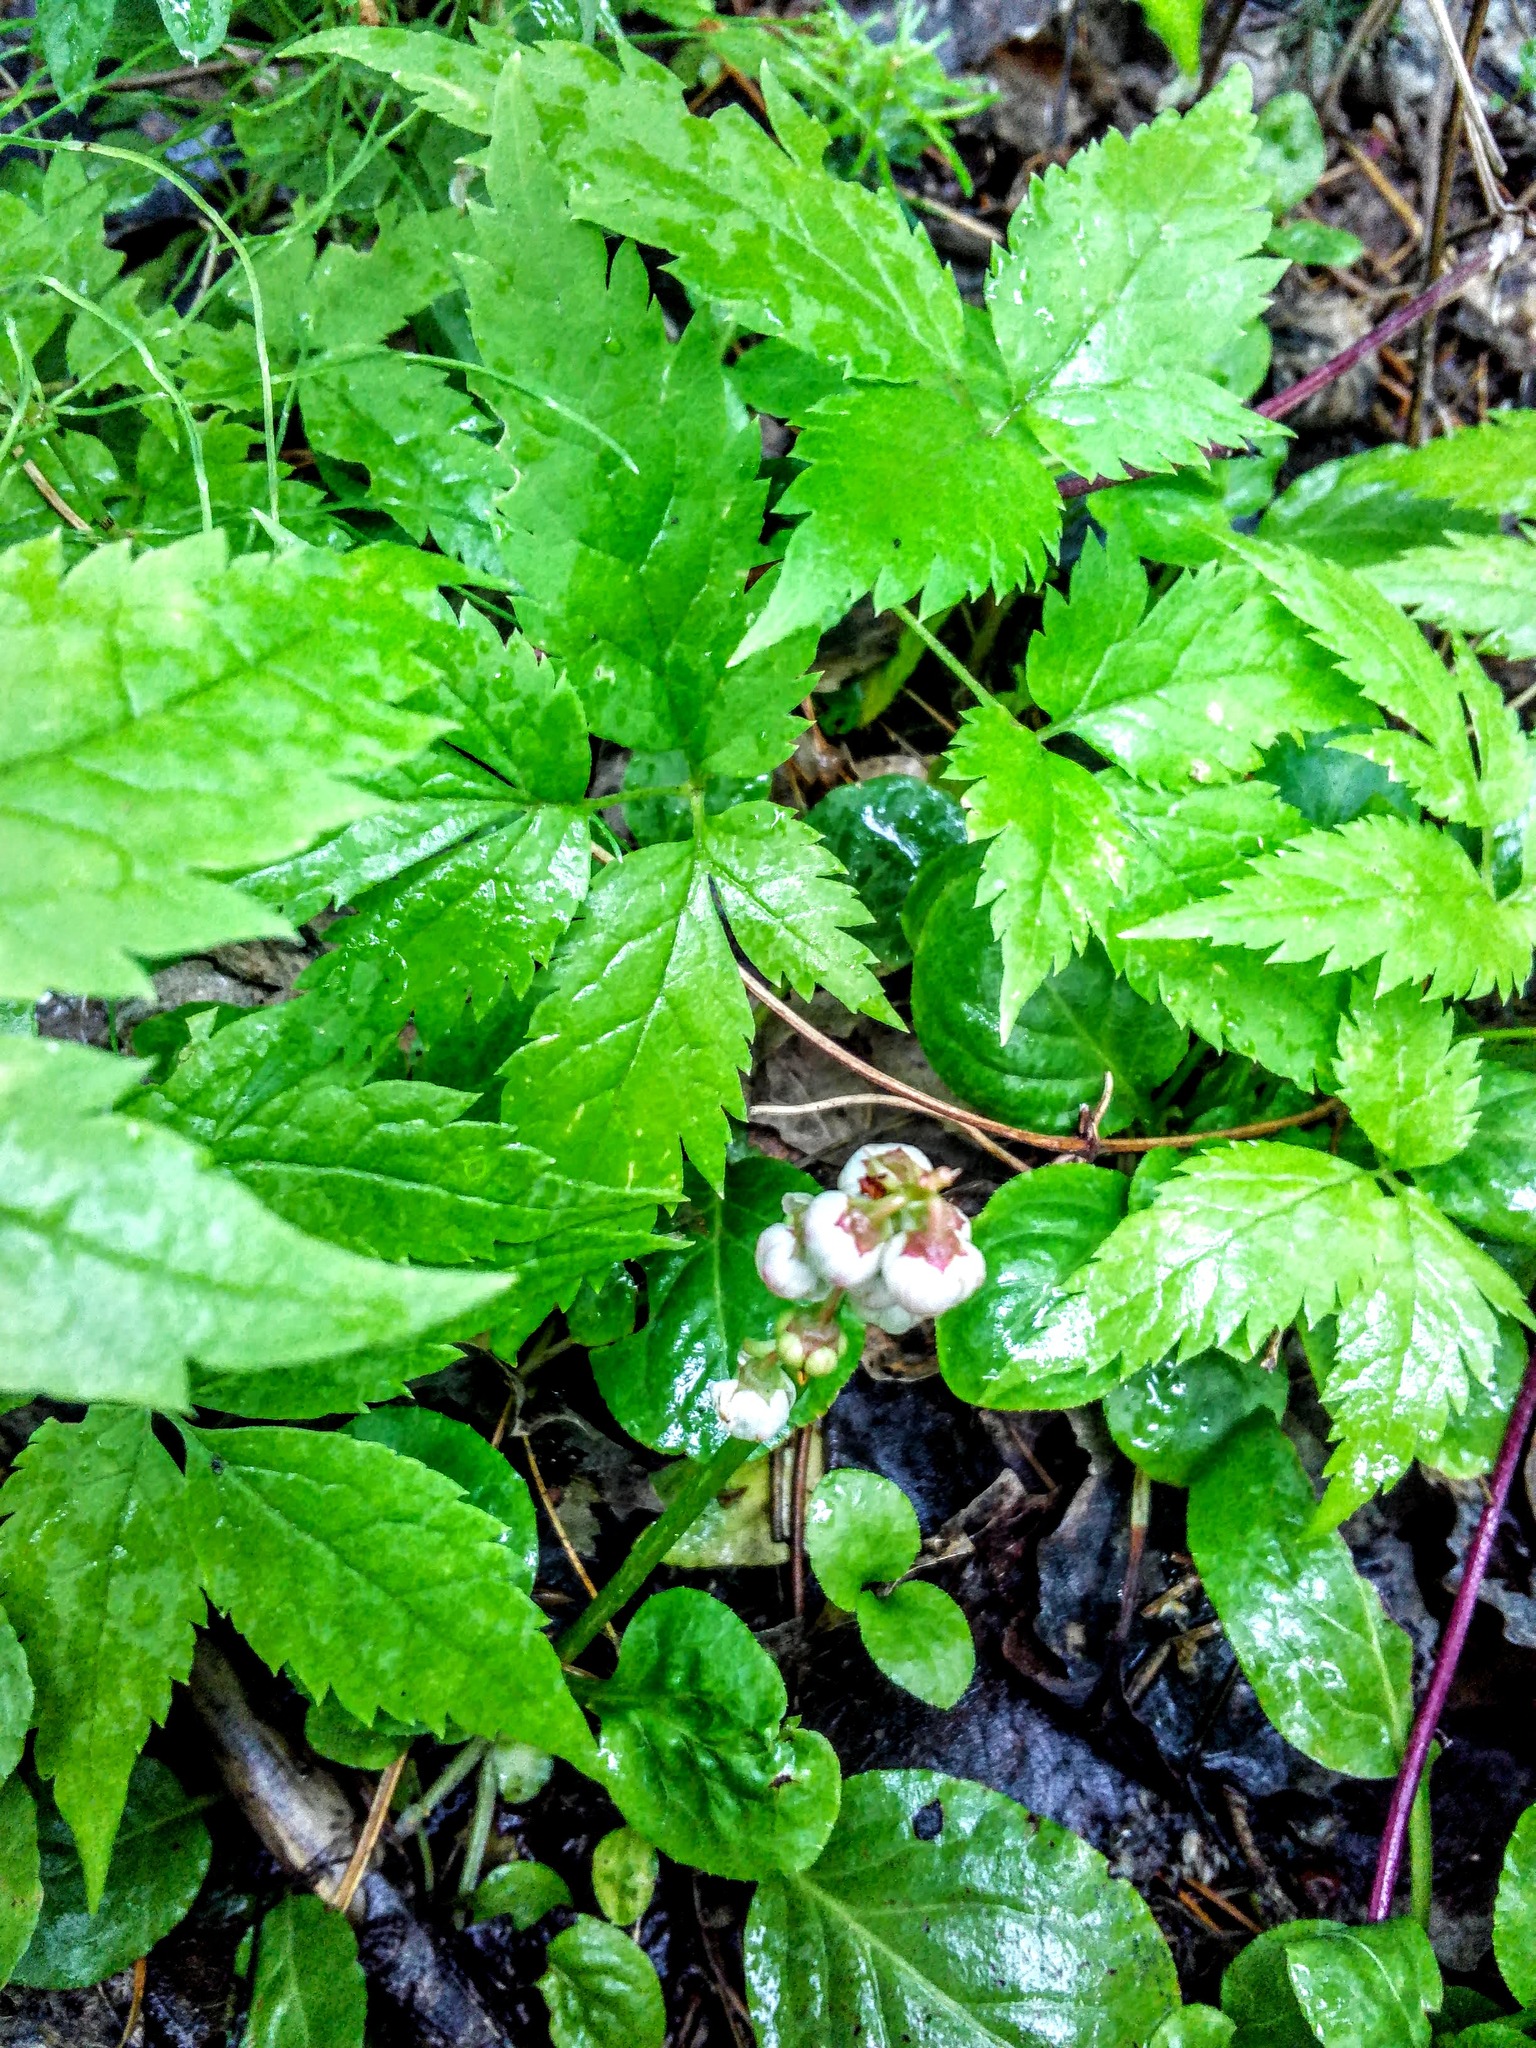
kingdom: Plantae
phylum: Tracheophyta
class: Magnoliopsida
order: Ericales
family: Ericaceae
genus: Pyrola
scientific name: Pyrola minor
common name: Common wintergreen
